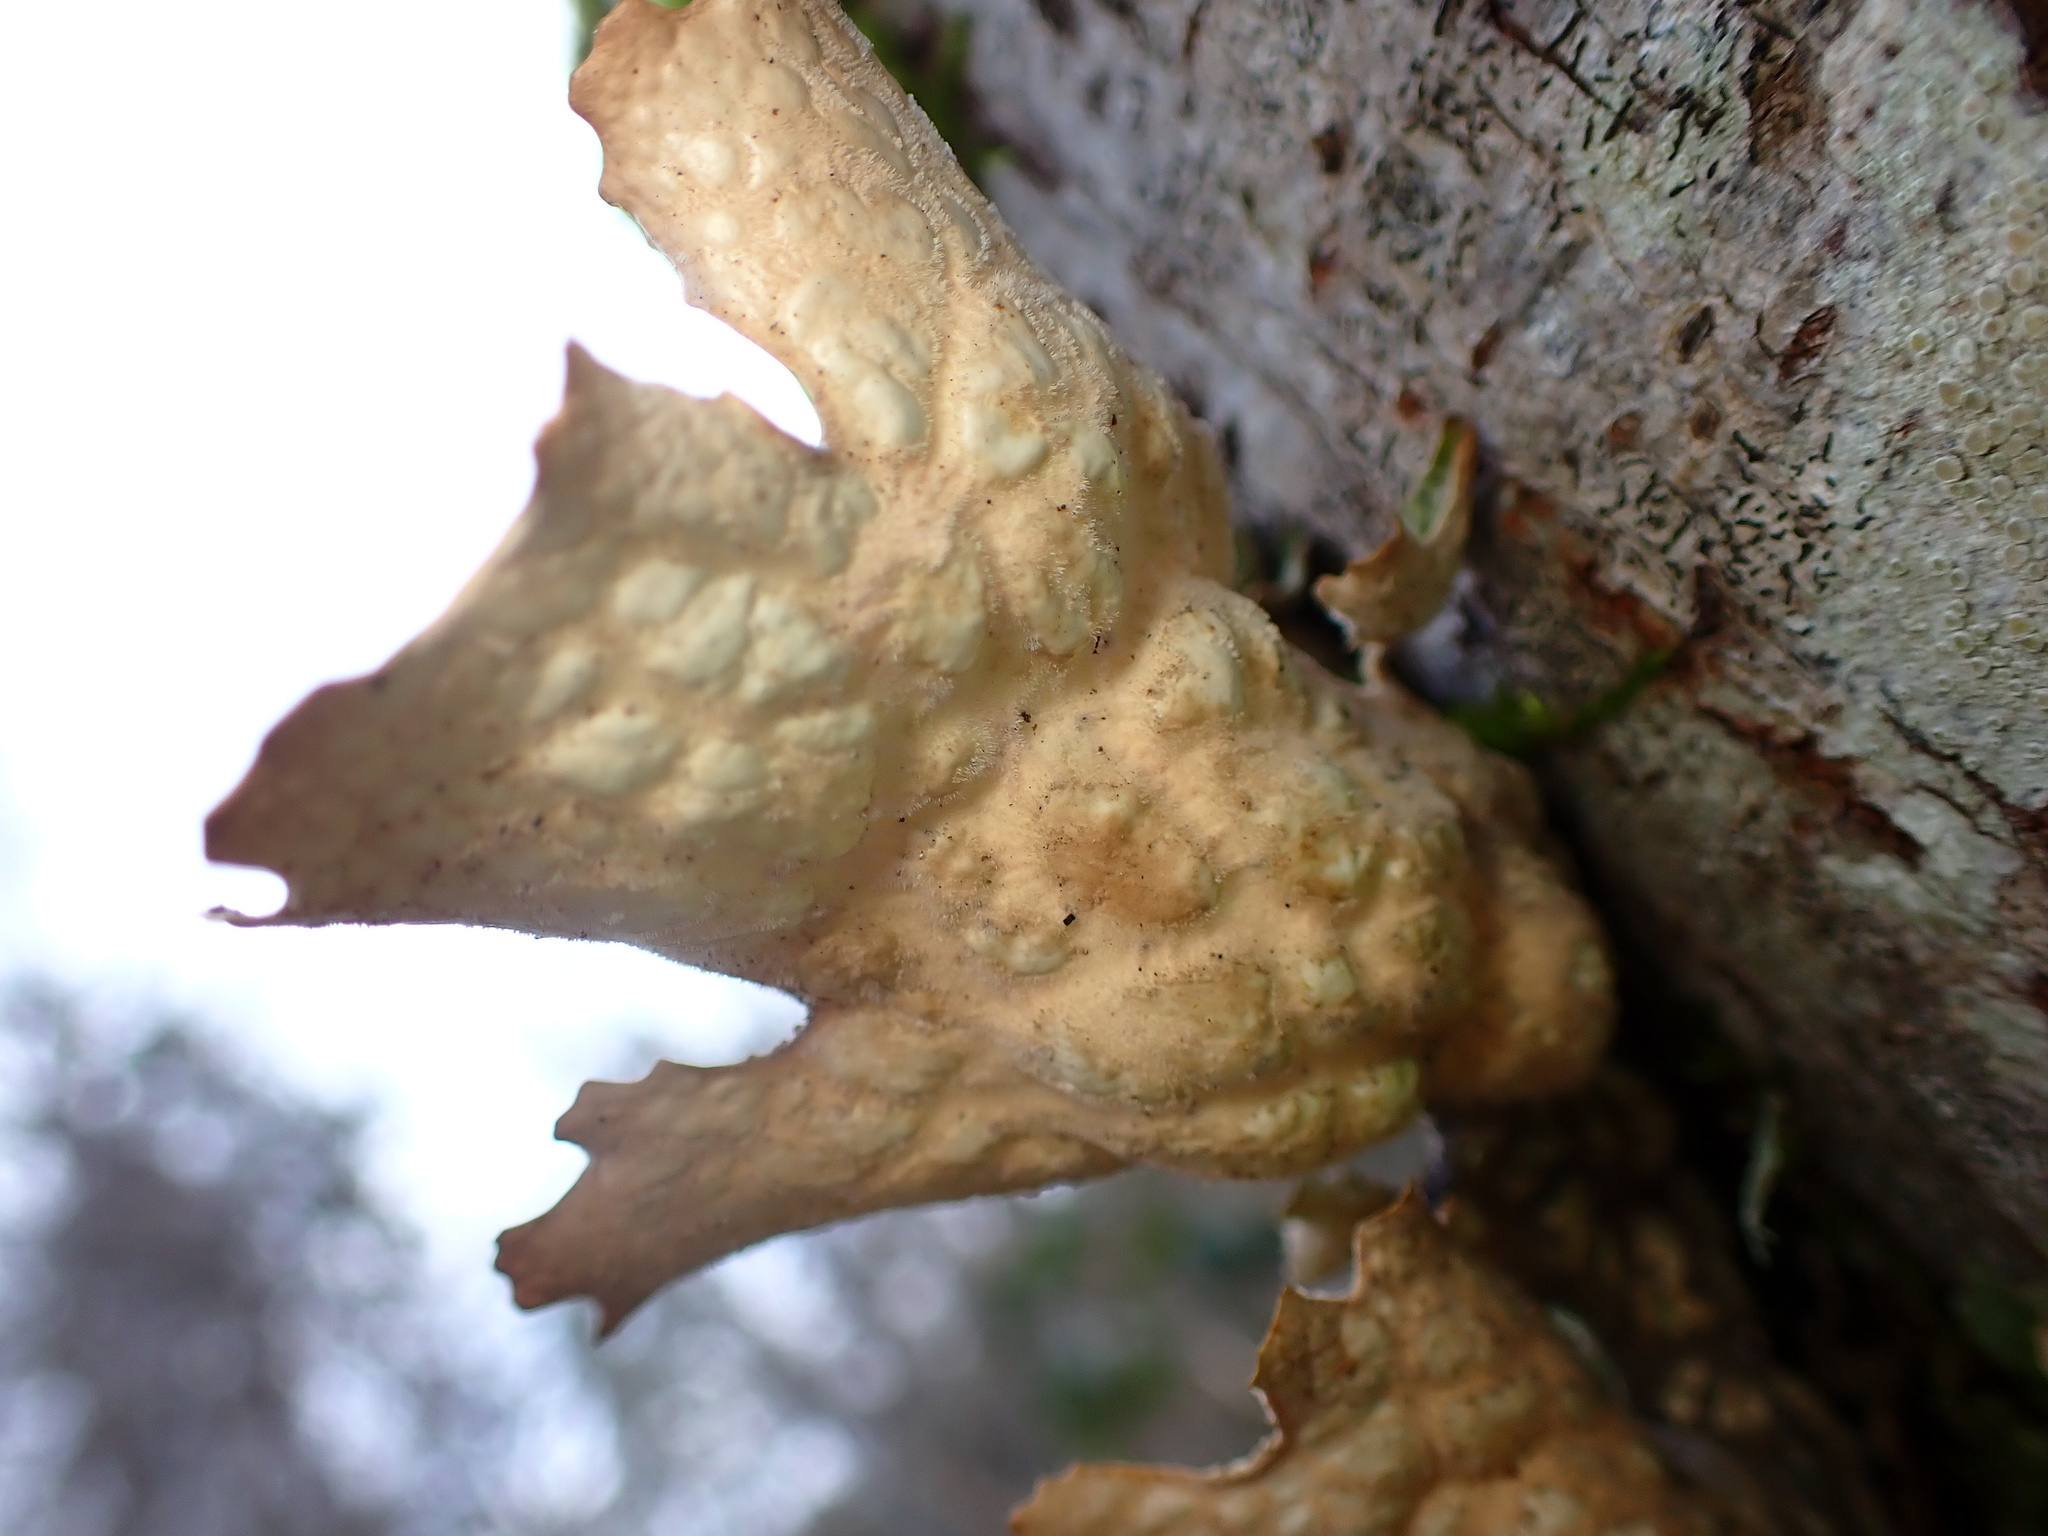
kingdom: Fungi
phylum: Ascomycota
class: Lecanoromycetes
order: Peltigerales
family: Lobariaceae
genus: Lobaria
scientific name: Lobaria pulmonaria
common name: Lungwort
